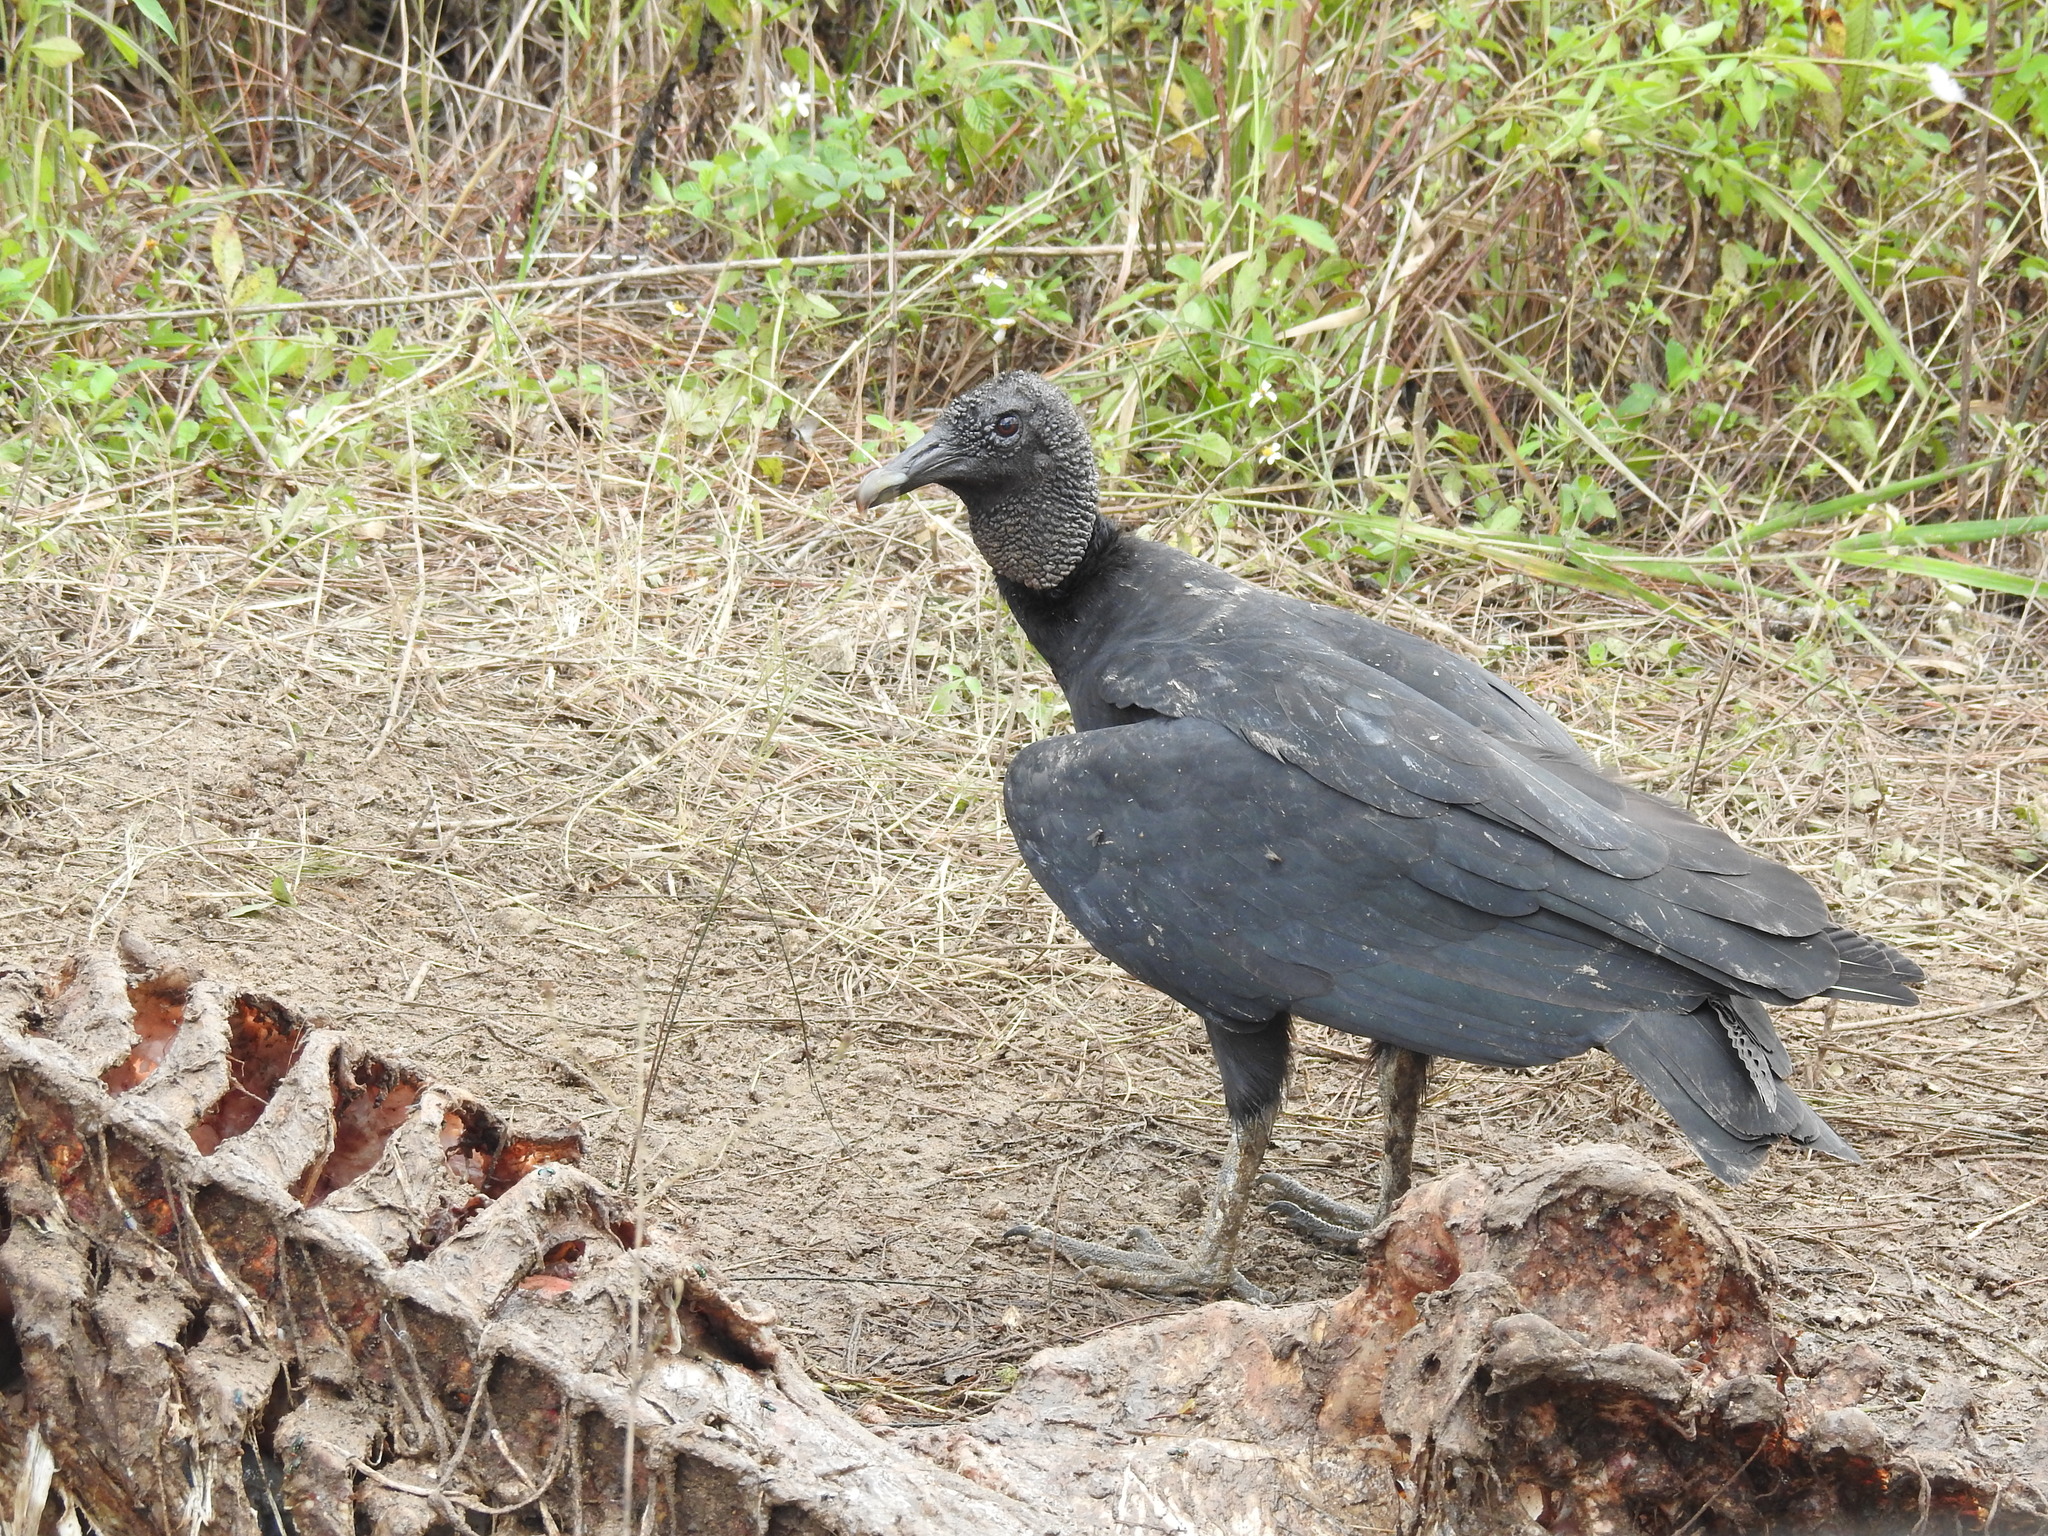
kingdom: Animalia
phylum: Chordata
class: Aves
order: Accipitriformes
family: Cathartidae
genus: Coragyps
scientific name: Coragyps atratus
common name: Black vulture
